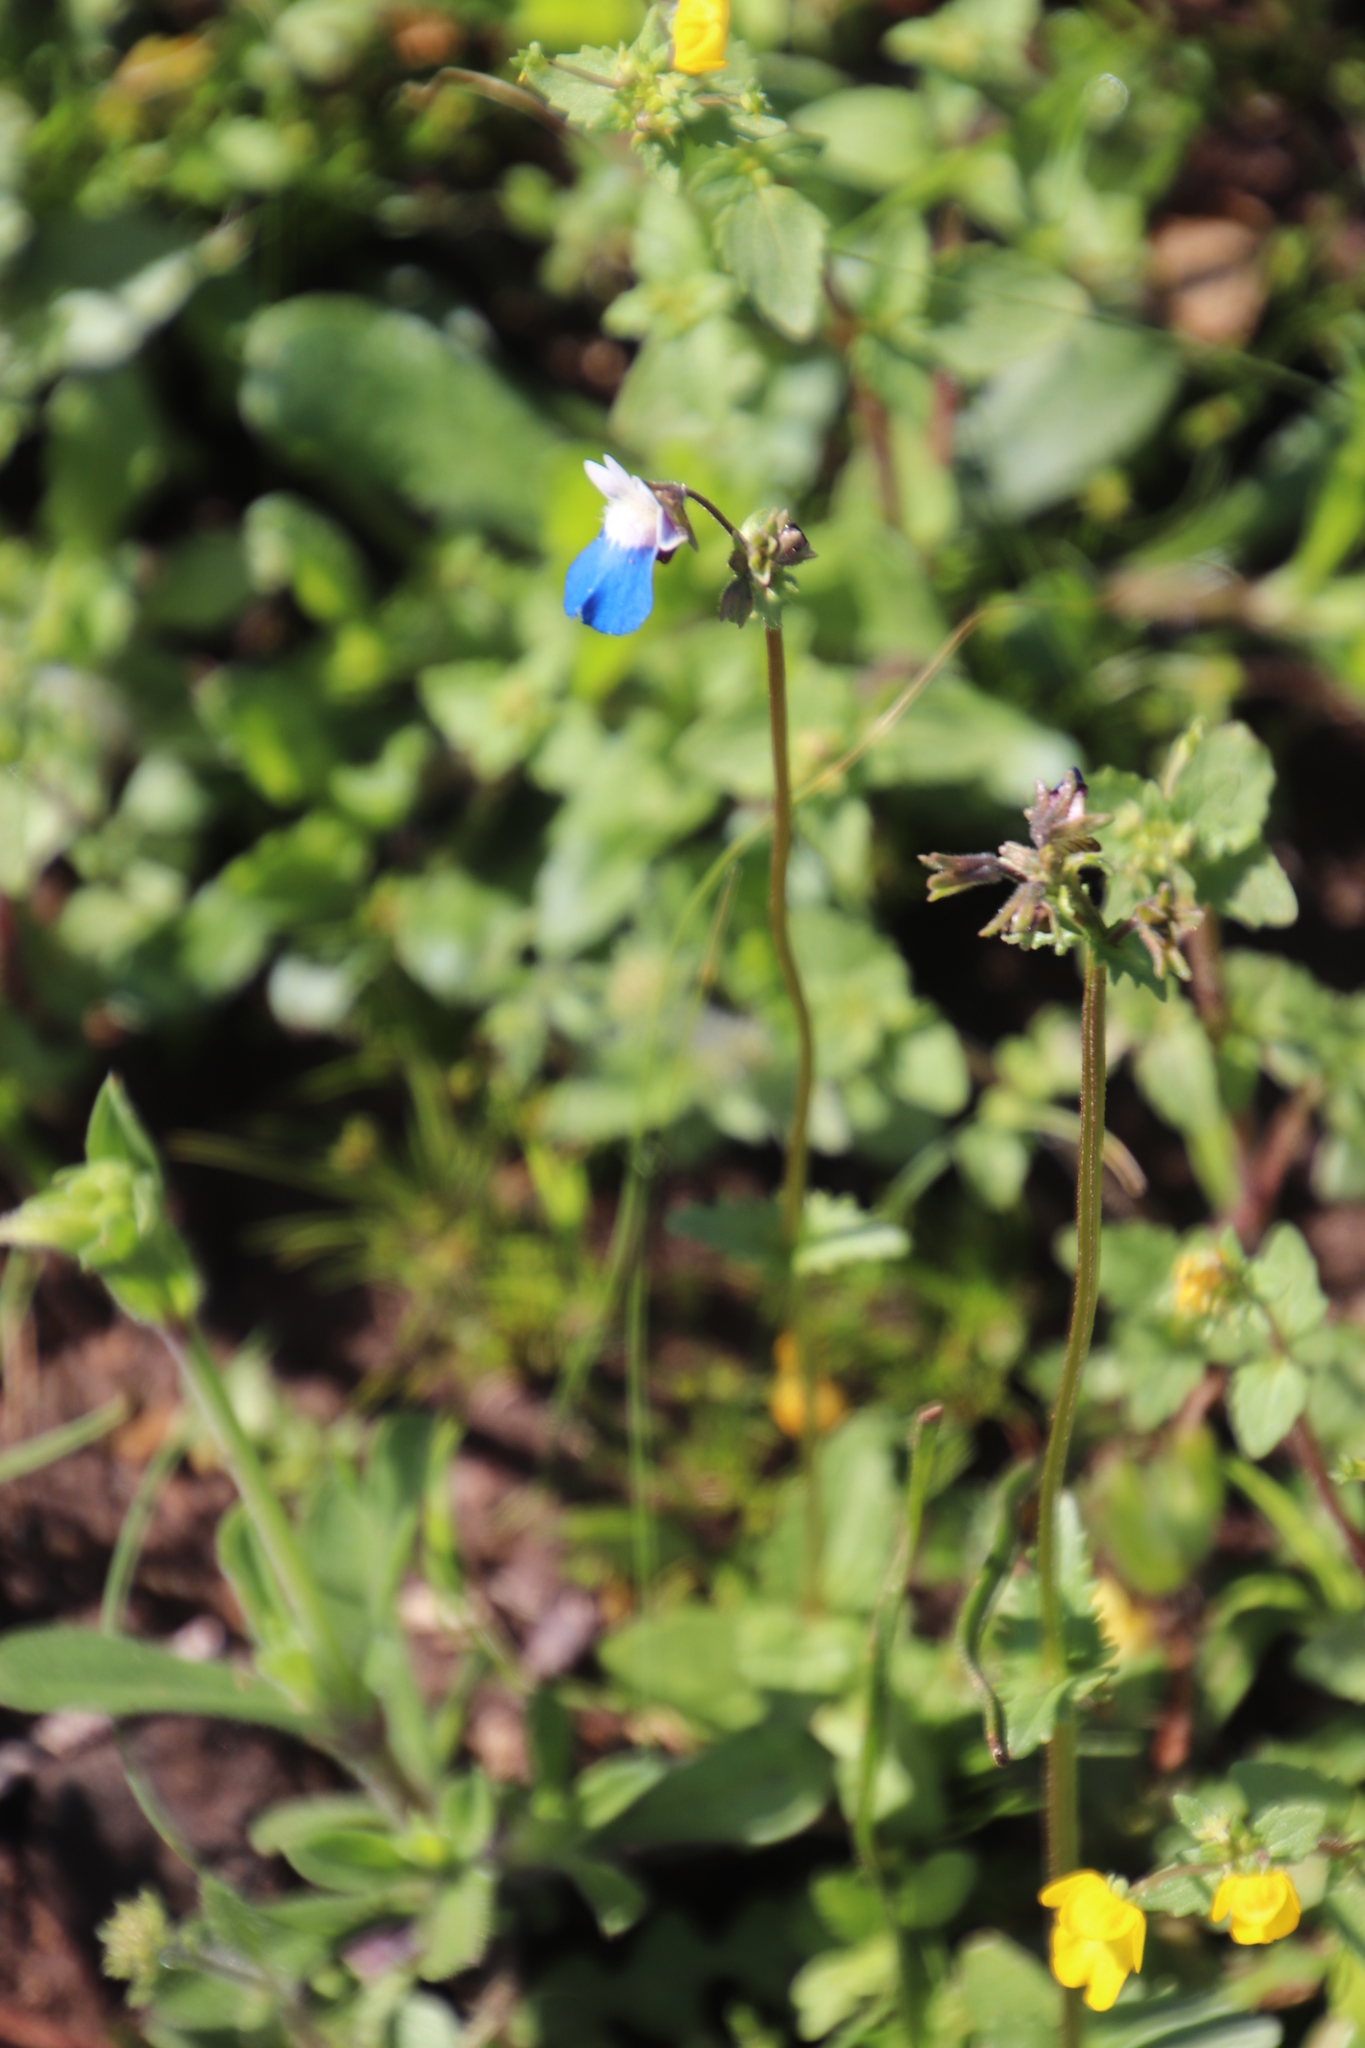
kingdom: Plantae
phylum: Tracheophyta
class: Magnoliopsida
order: Lamiales
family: Scrophulariaceae
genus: Nemesia
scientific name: Nemesia barbata
